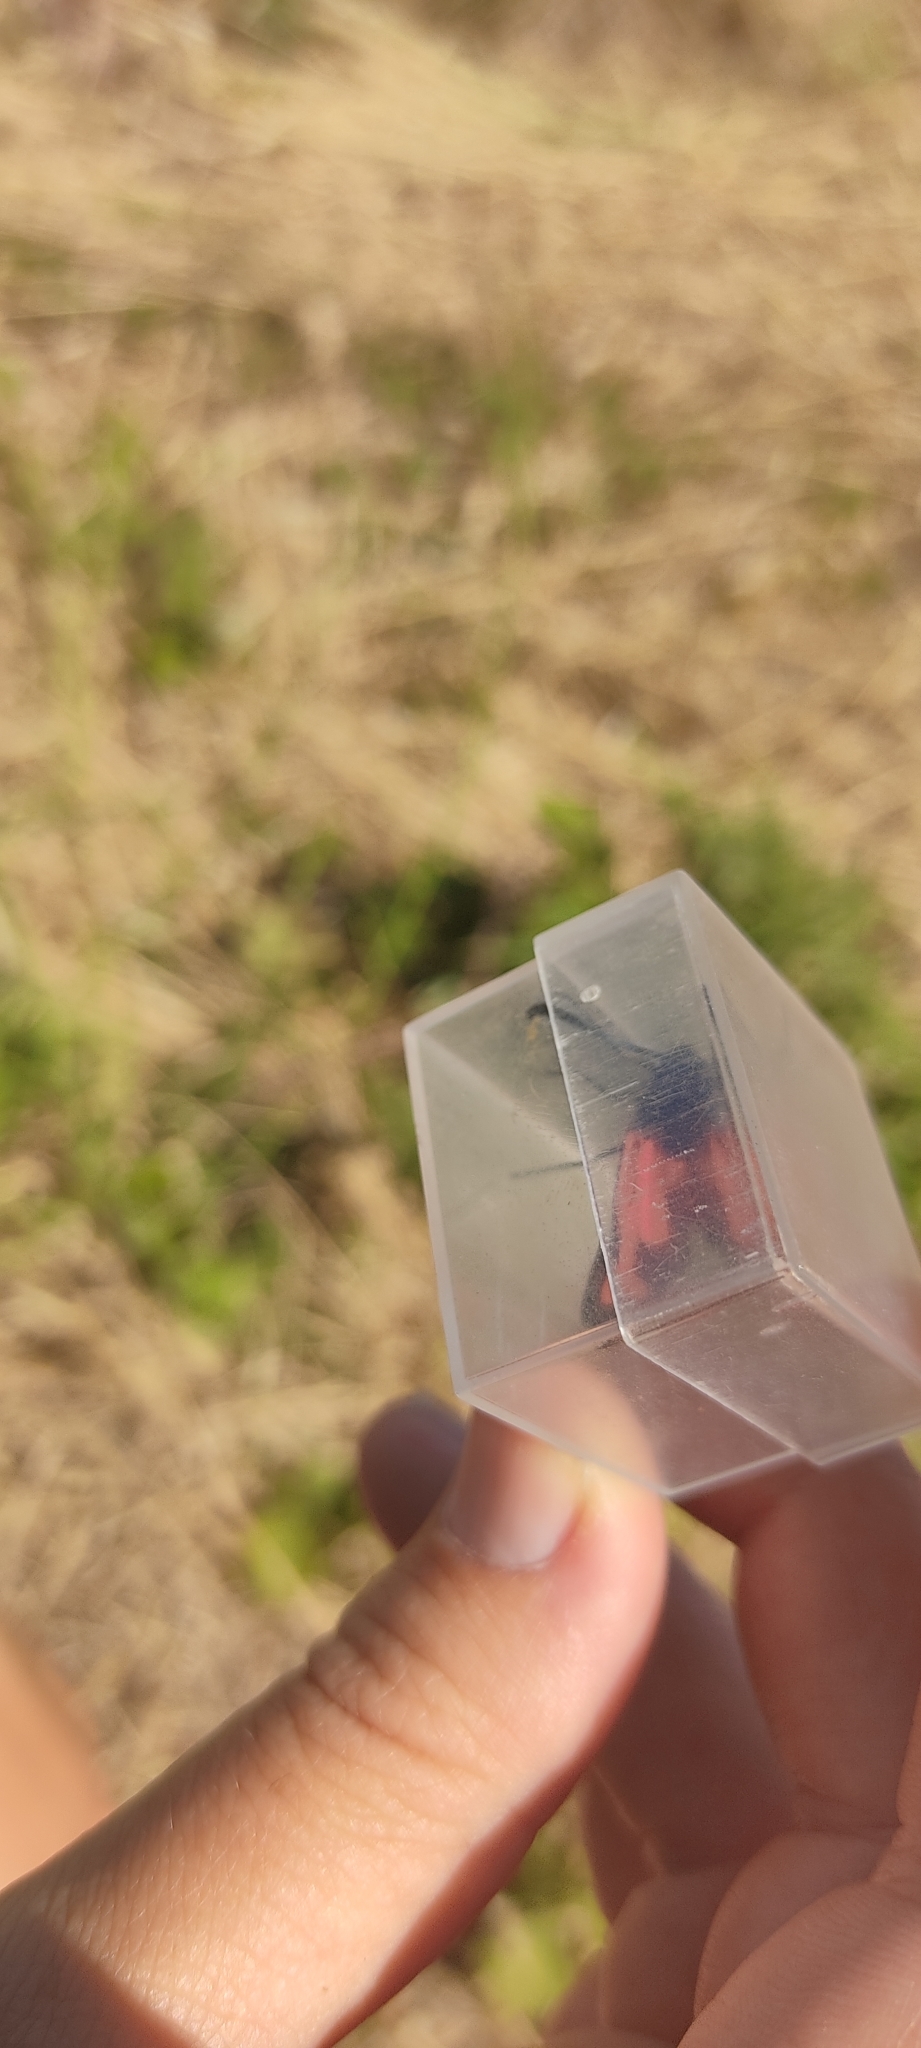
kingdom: Animalia
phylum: Arthropoda
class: Insecta
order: Lepidoptera
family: Zygaenidae
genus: Zygaena
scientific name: Zygaena erythrus
